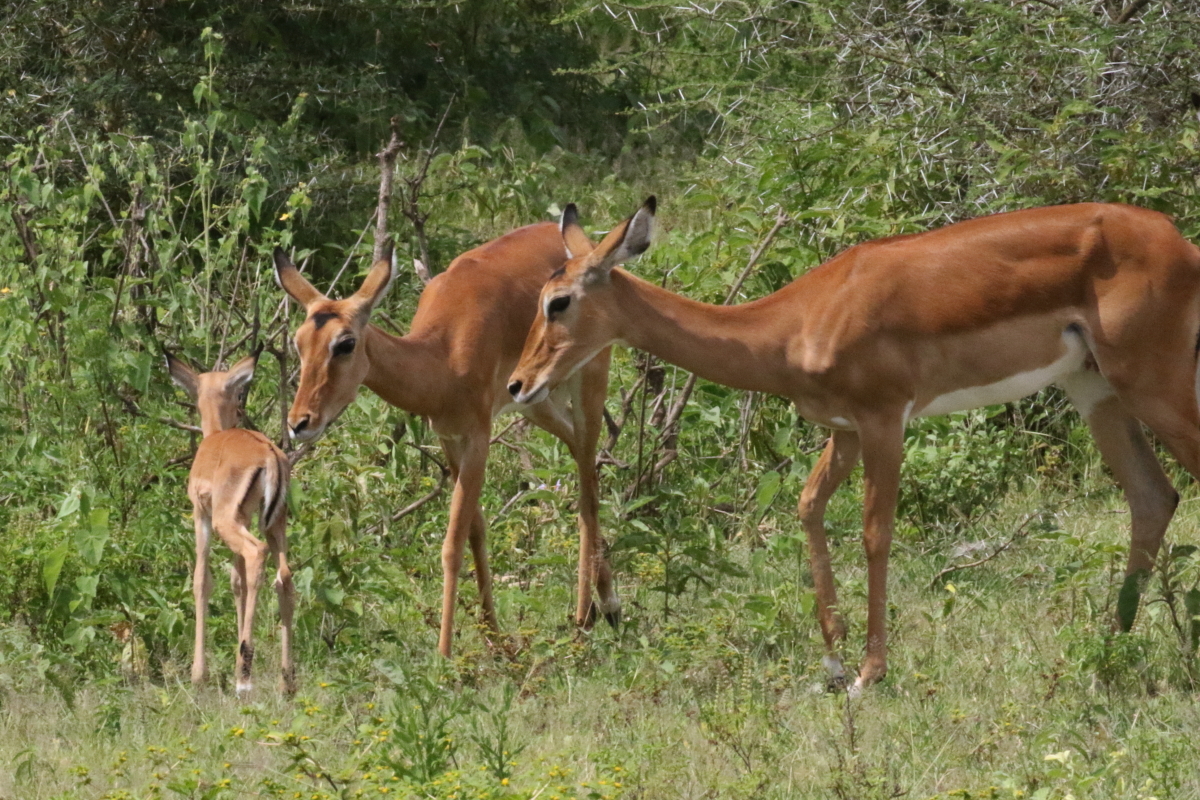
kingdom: Animalia
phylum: Chordata
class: Mammalia
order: Artiodactyla
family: Bovidae
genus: Aepyceros
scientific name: Aepyceros melampus
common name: Impala
